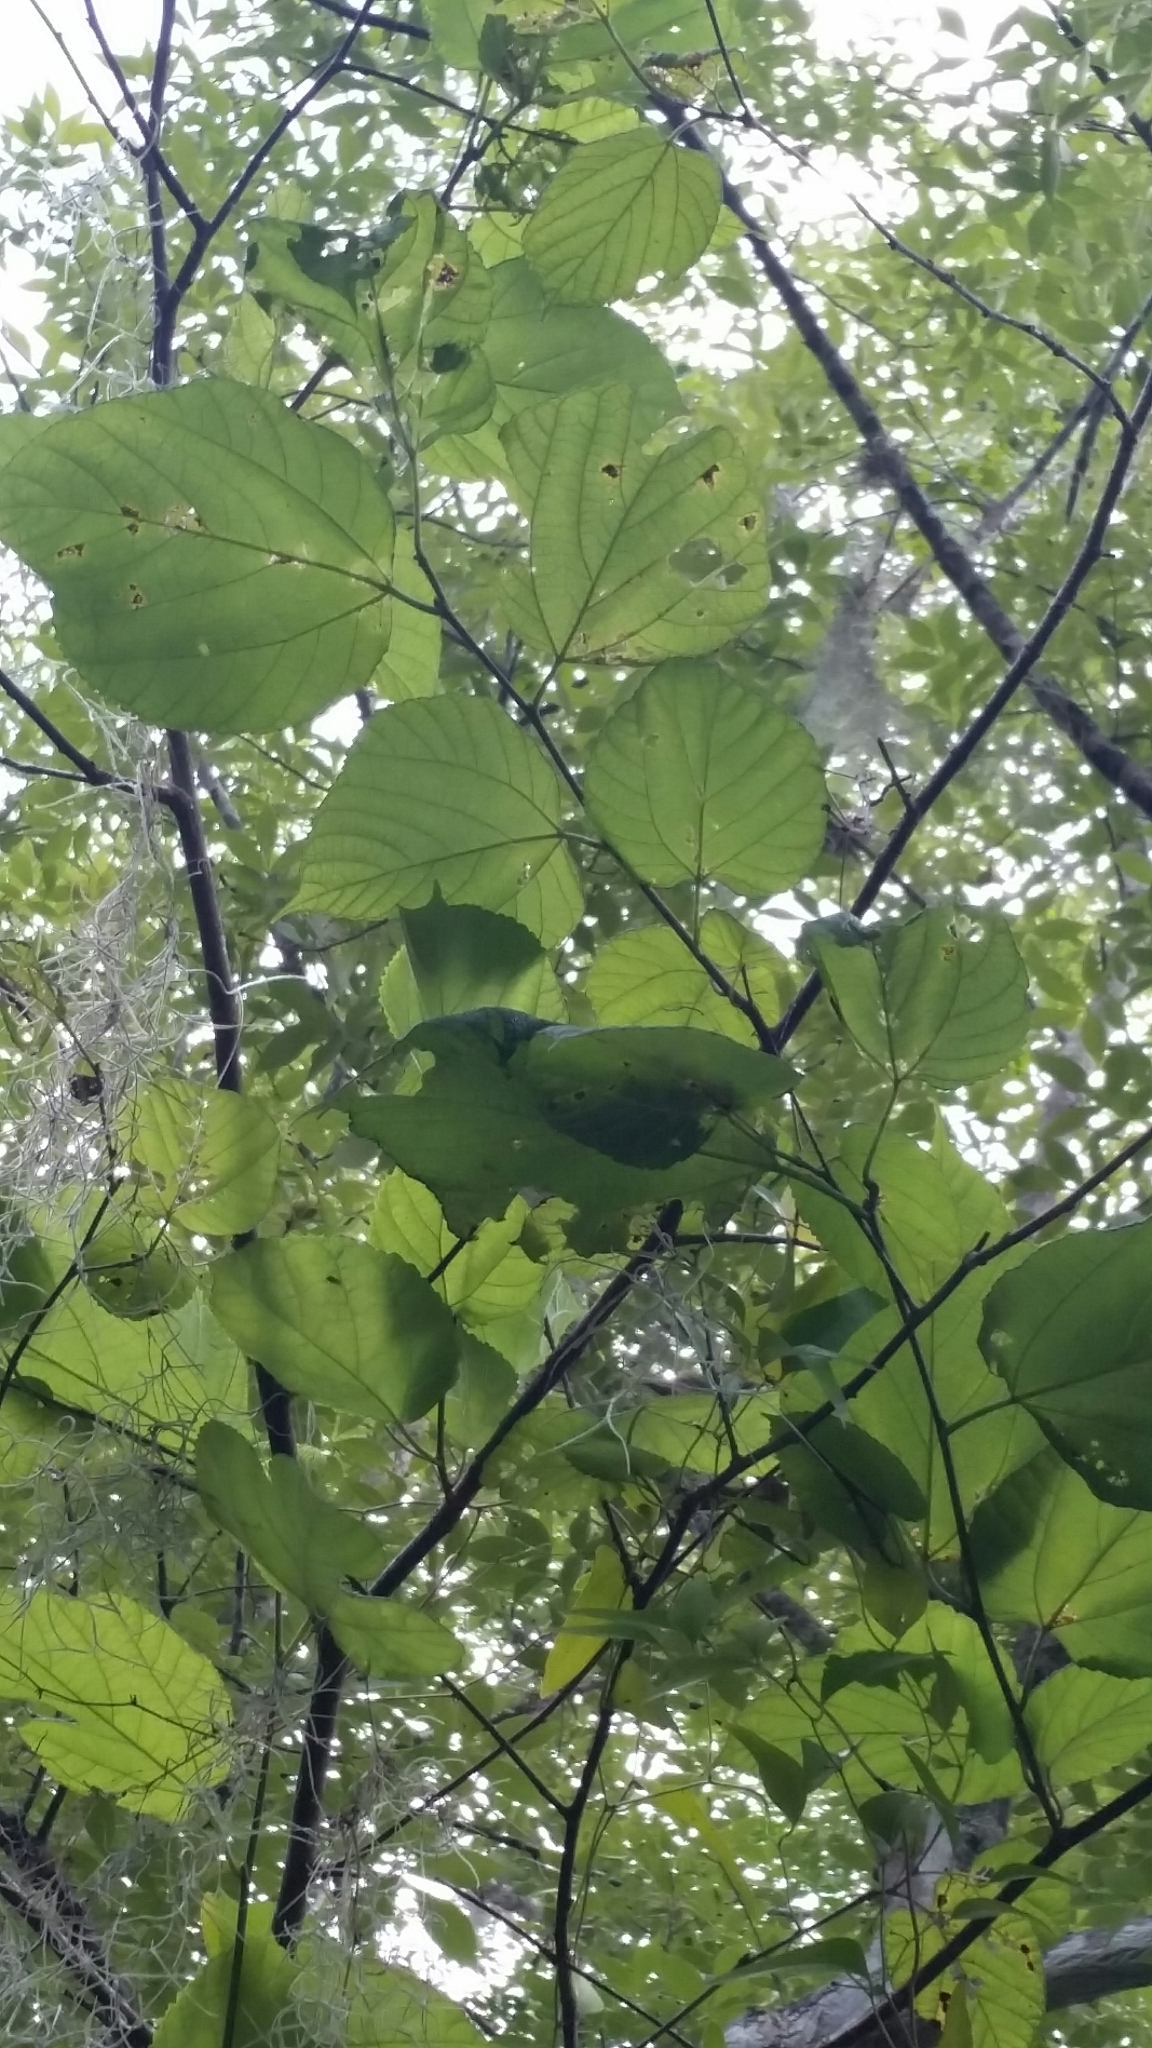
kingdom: Plantae
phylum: Tracheophyta
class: Magnoliopsida
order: Rosales
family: Moraceae
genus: Morus
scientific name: Morus rubra
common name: Red mulberry
